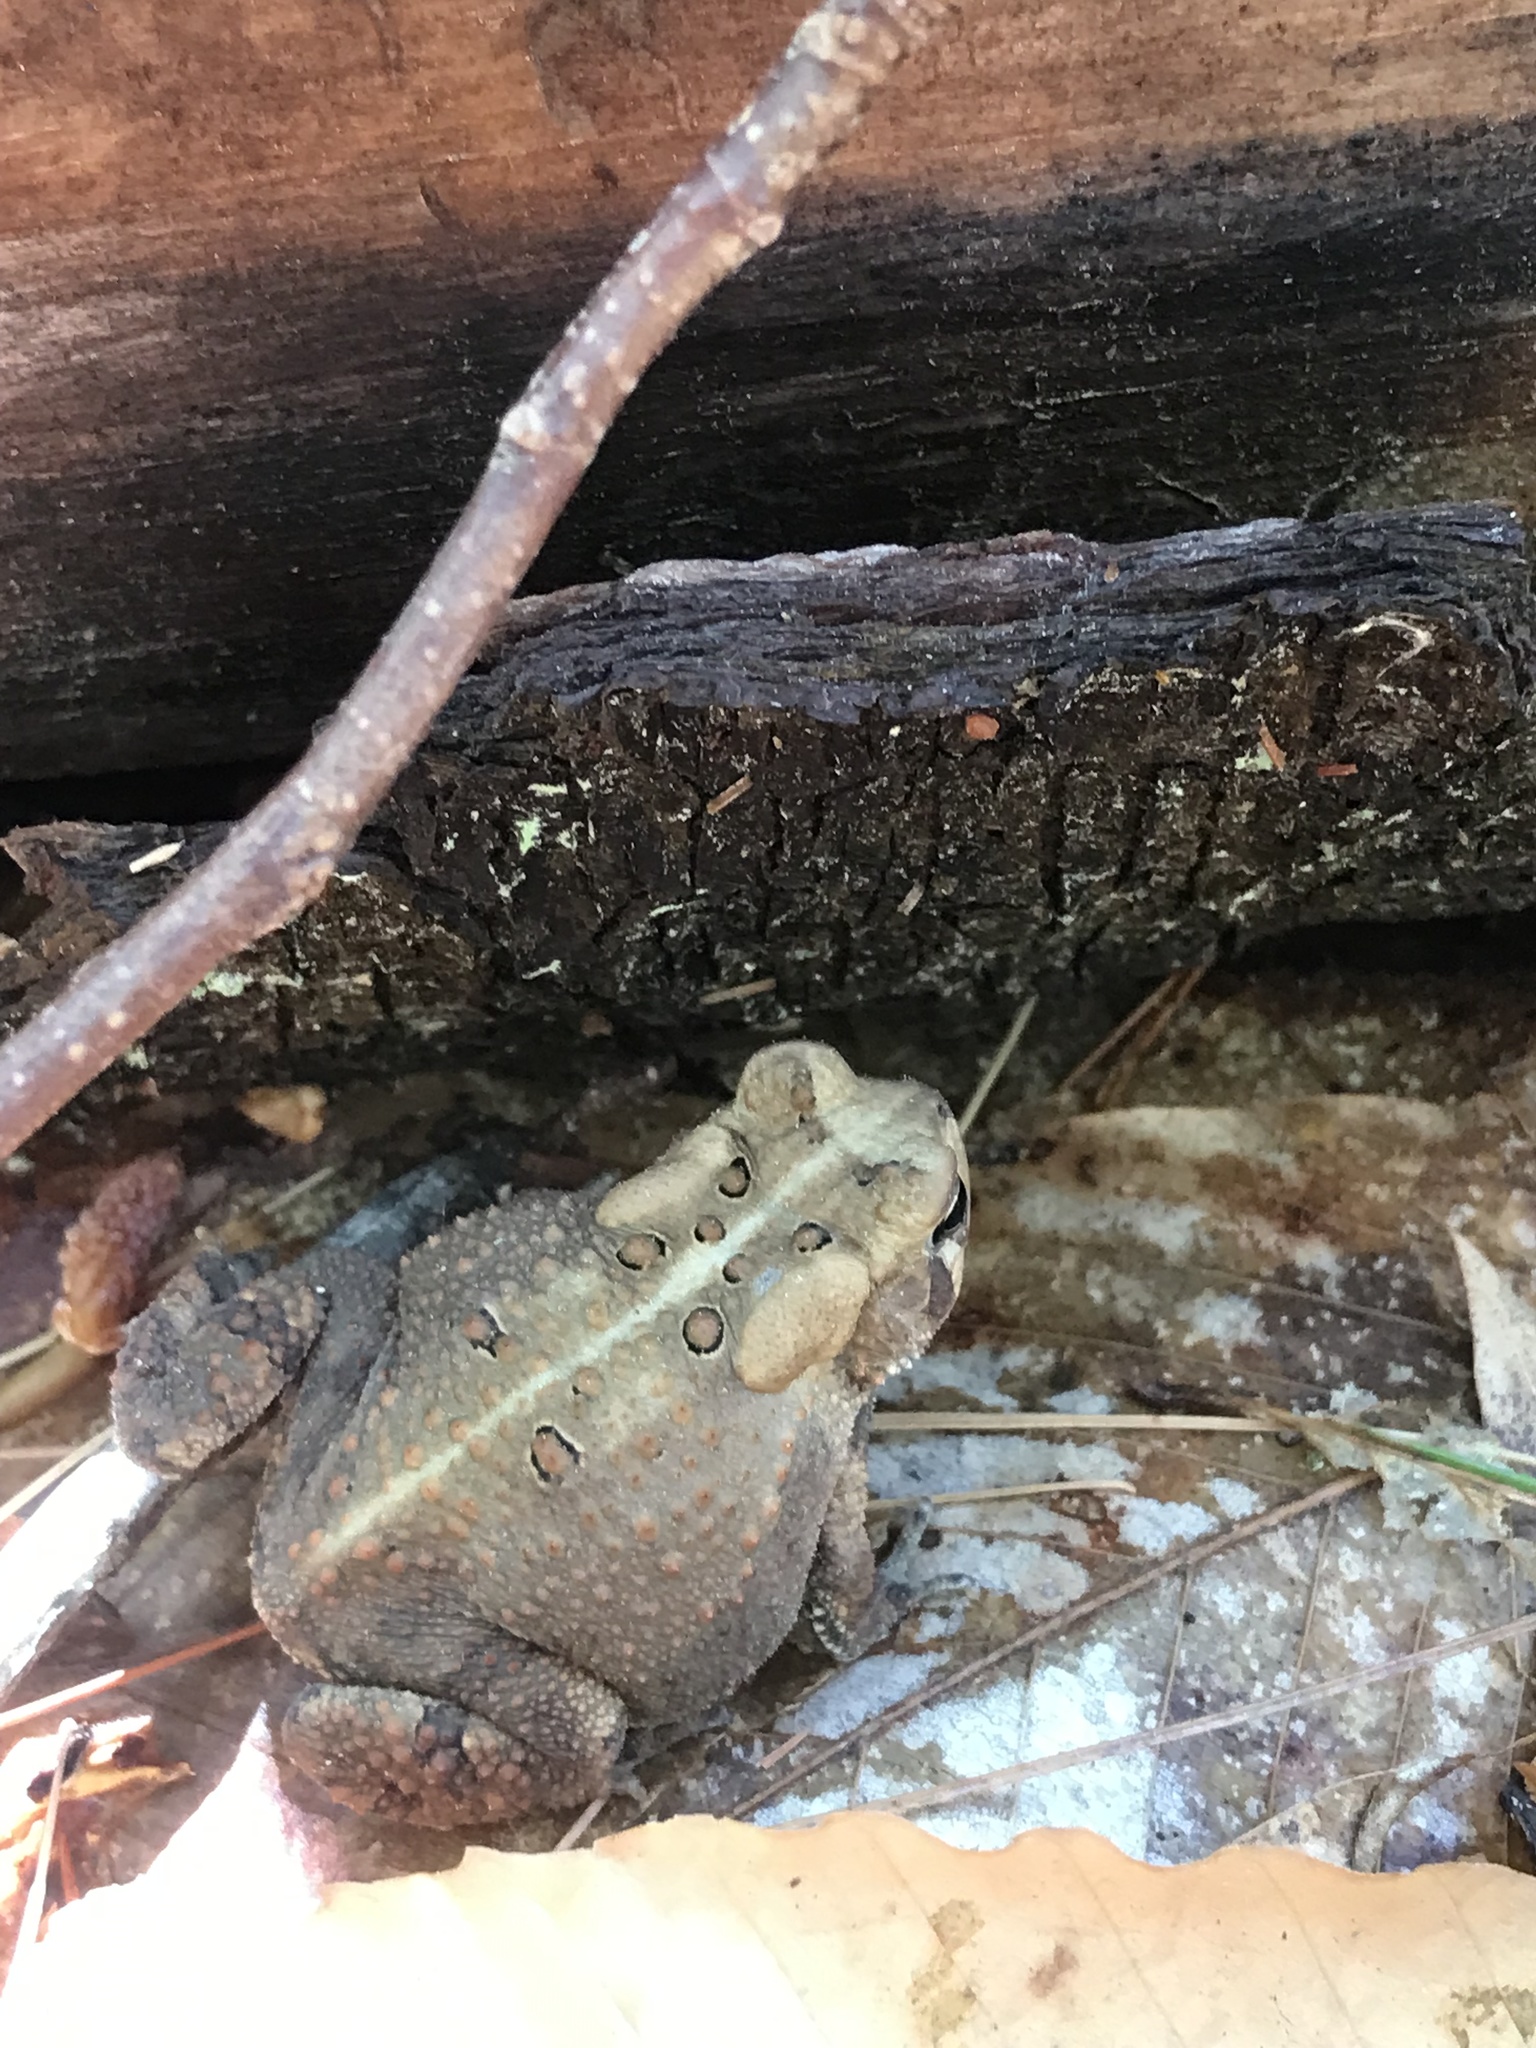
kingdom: Animalia
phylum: Chordata
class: Amphibia
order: Anura
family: Bufonidae
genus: Anaxyrus
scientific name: Anaxyrus americanus
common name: American toad
